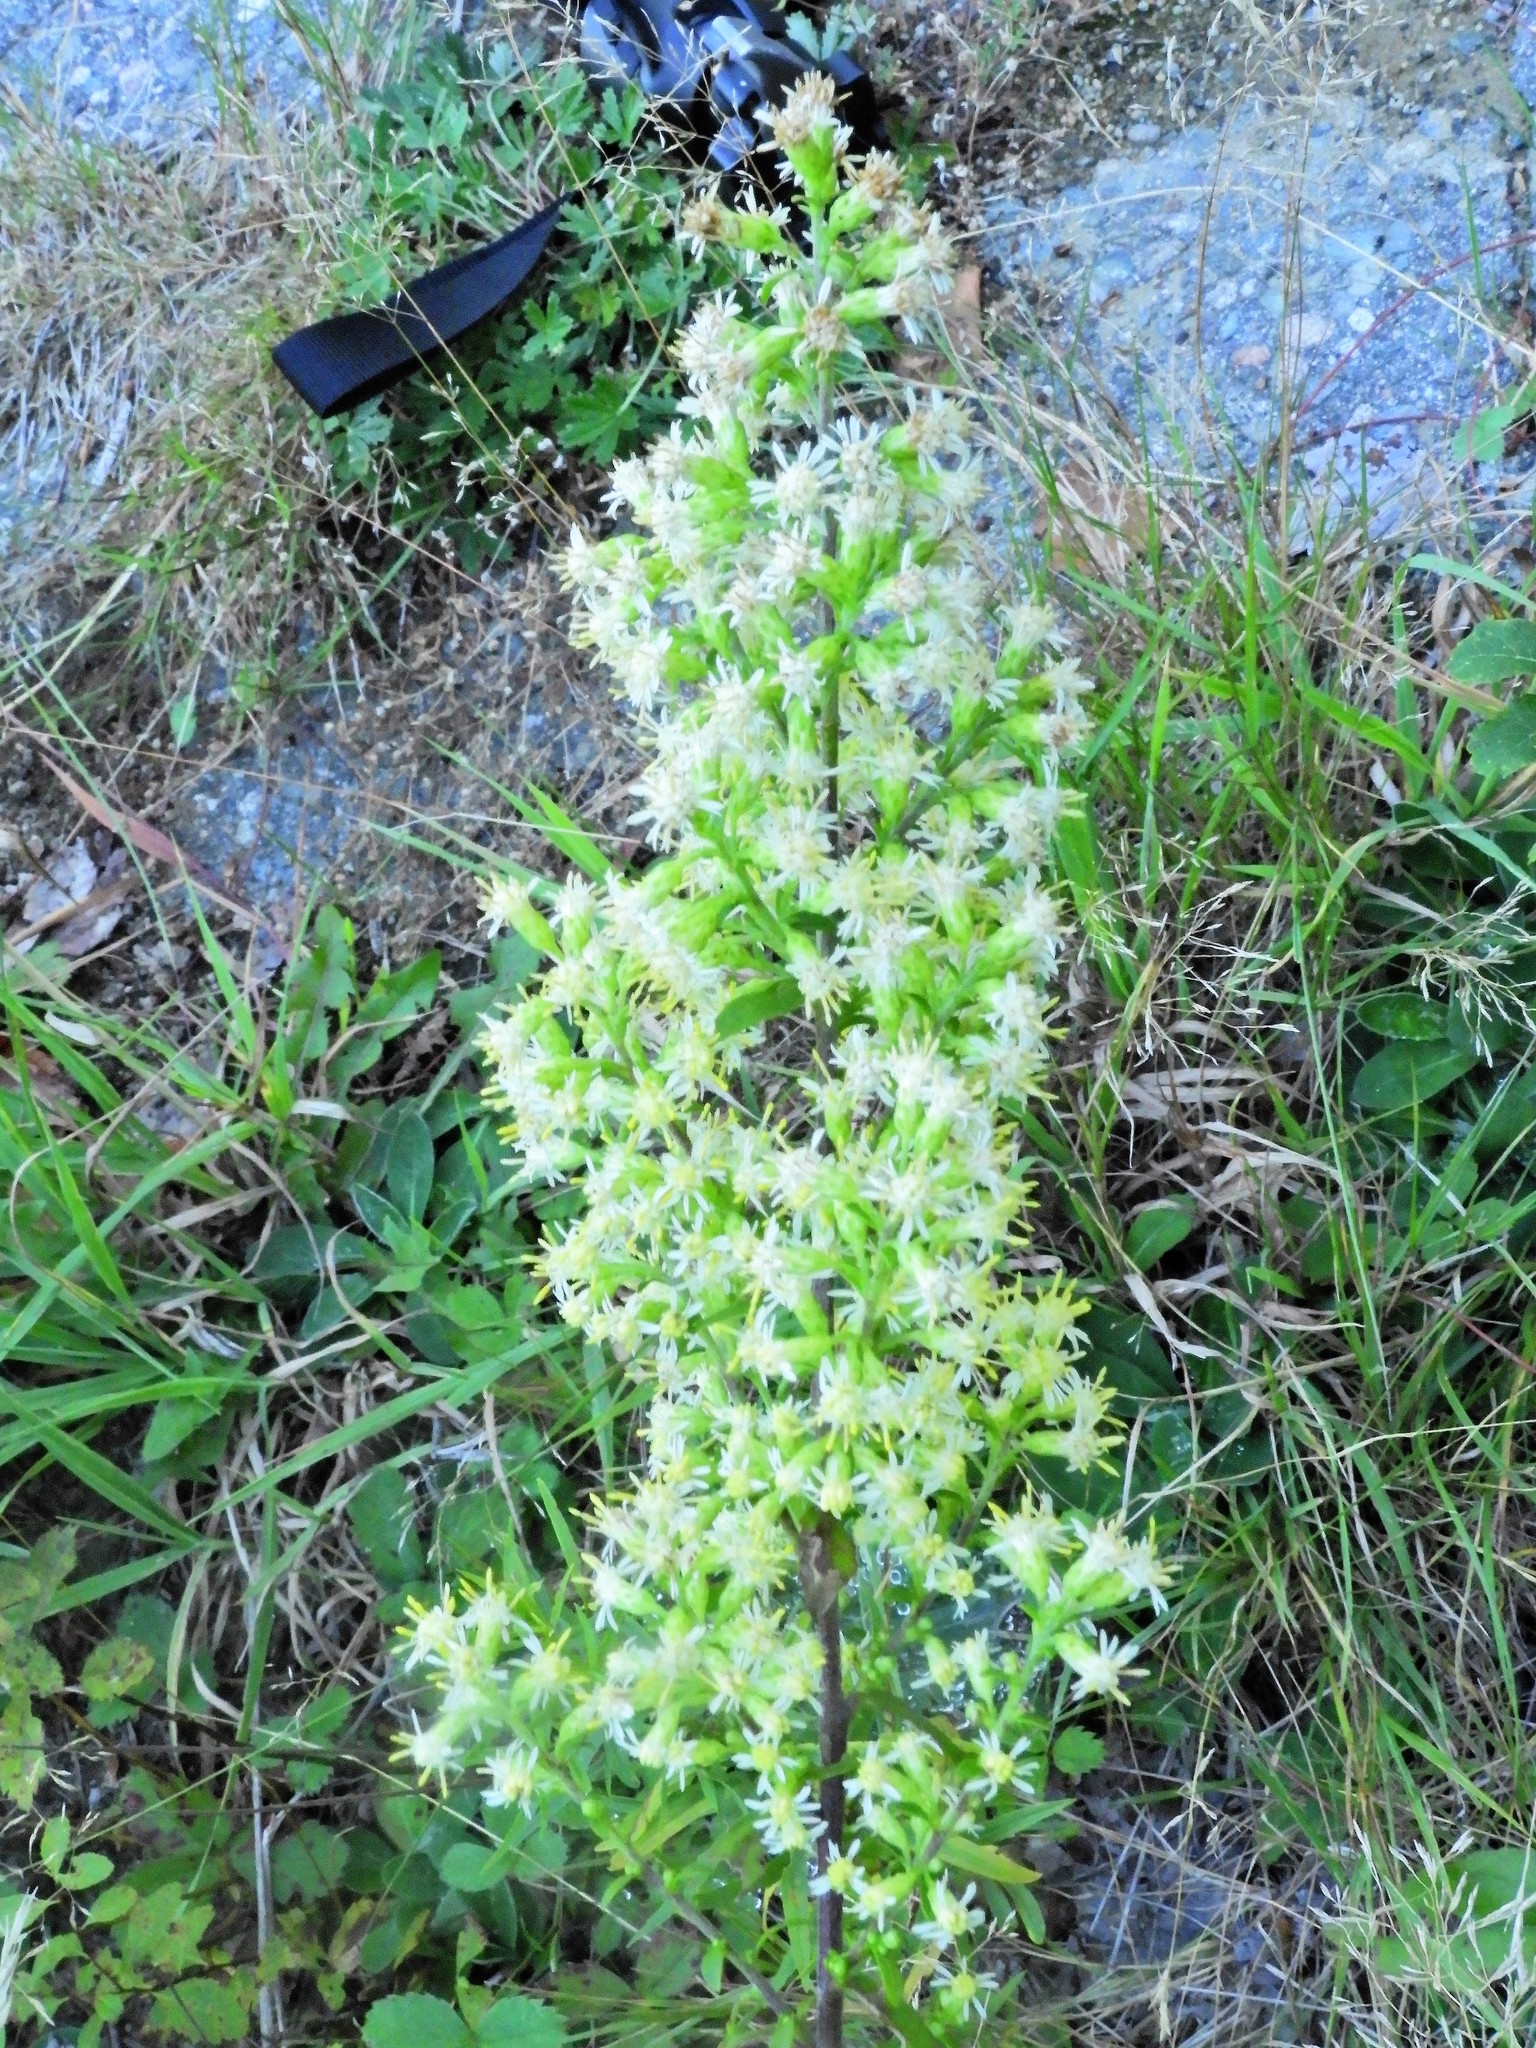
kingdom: Plantae
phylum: Tracheophyta
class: Magnoliopsida
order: Asterales
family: Asteraceae
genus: Solidago
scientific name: Solidago bicolor
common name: Silverrod
